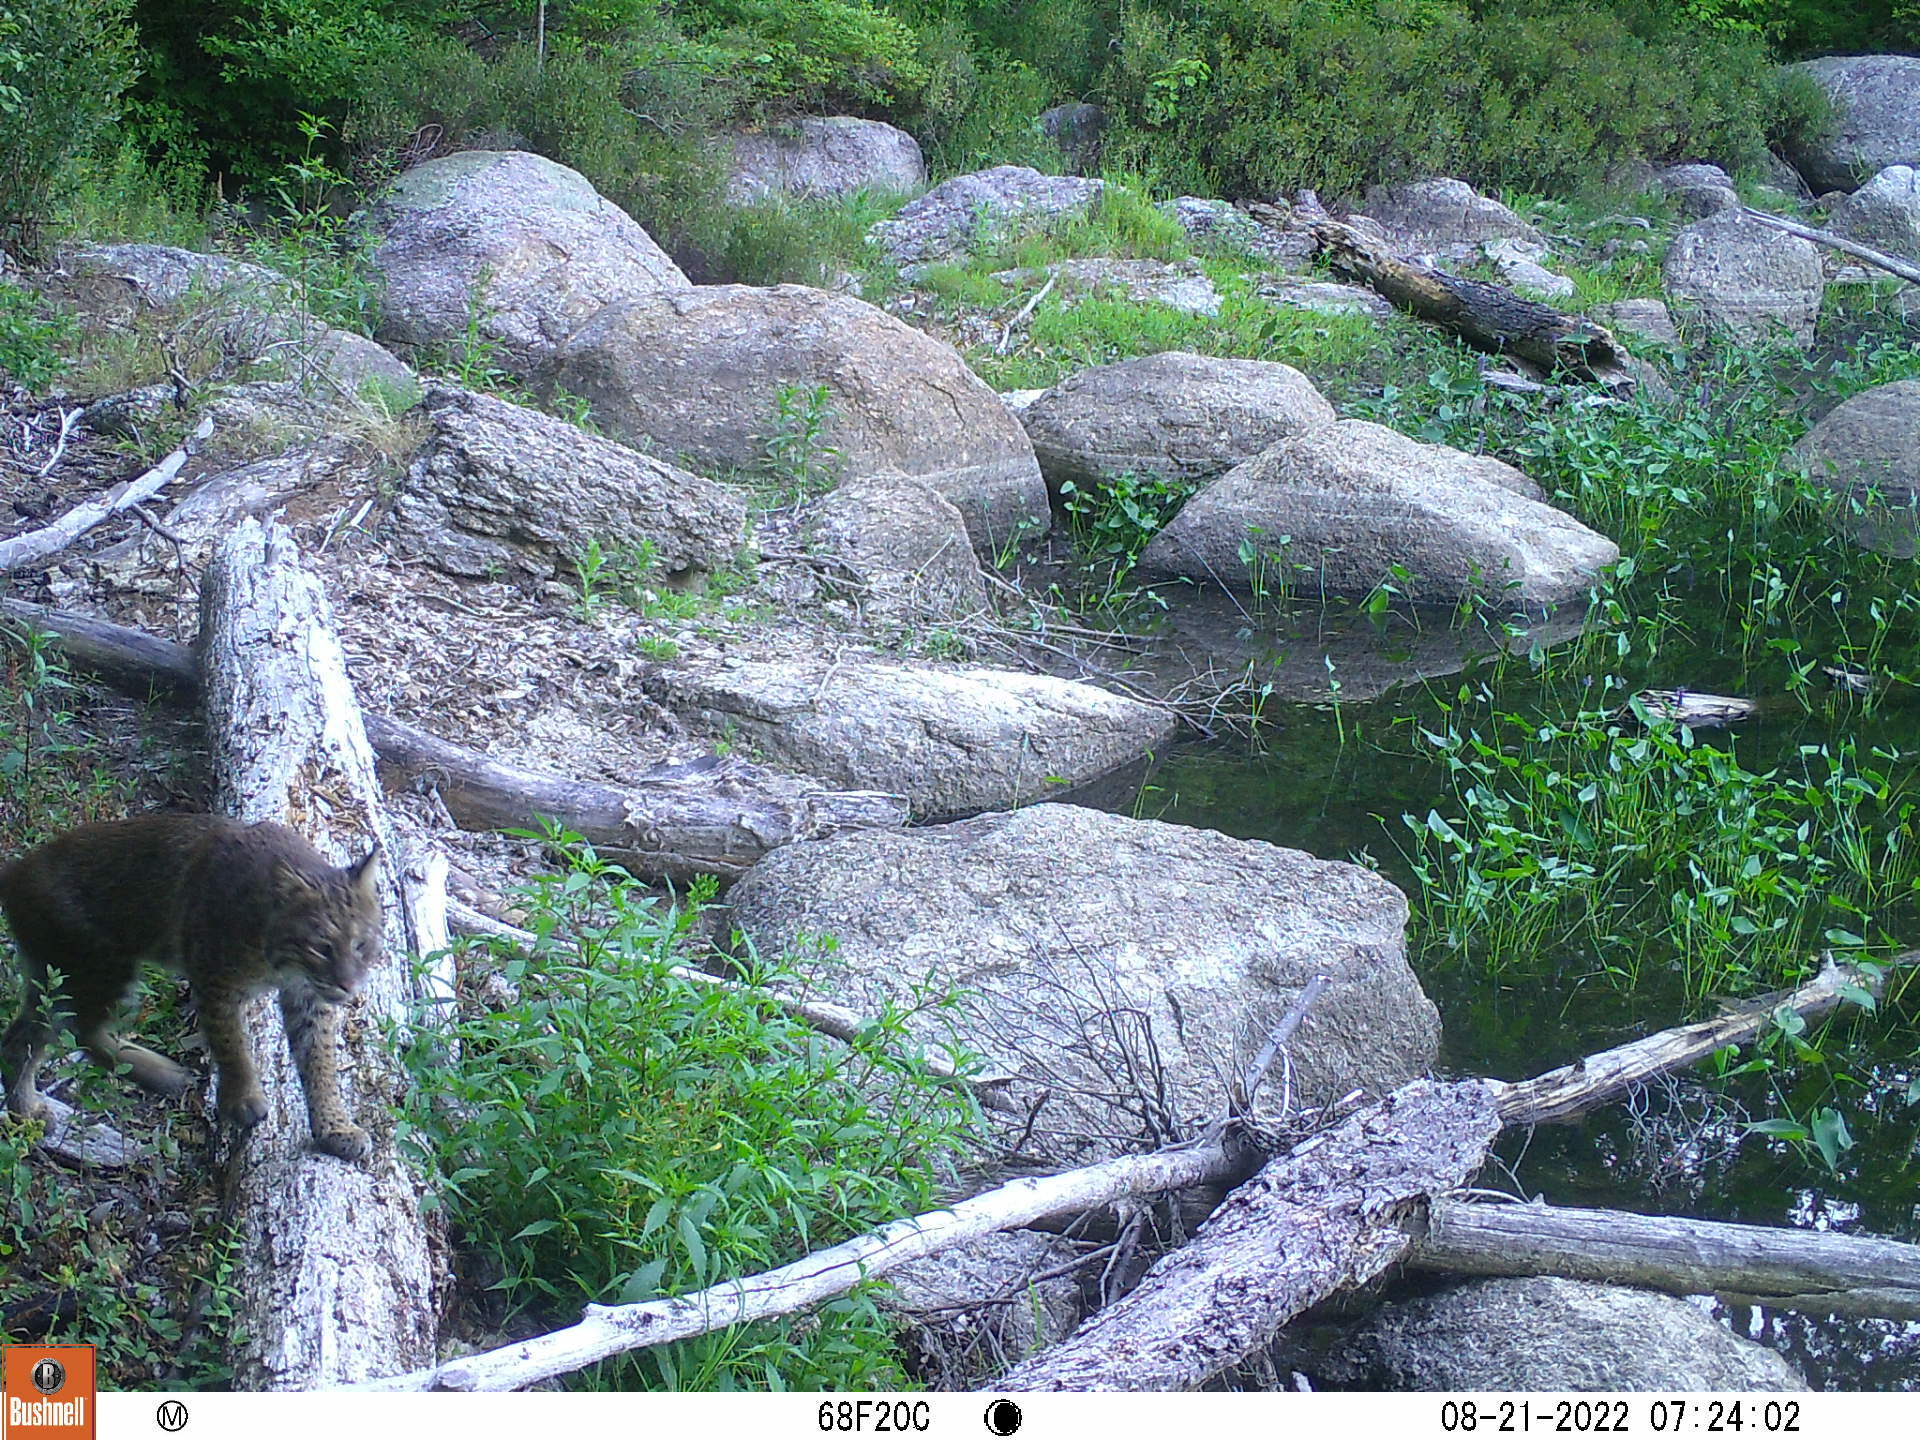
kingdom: Animalia
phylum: Chordata
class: Mammalia
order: Carnivora
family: Felidae
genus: Lynx
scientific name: Lynx rufus
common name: Bobcat
